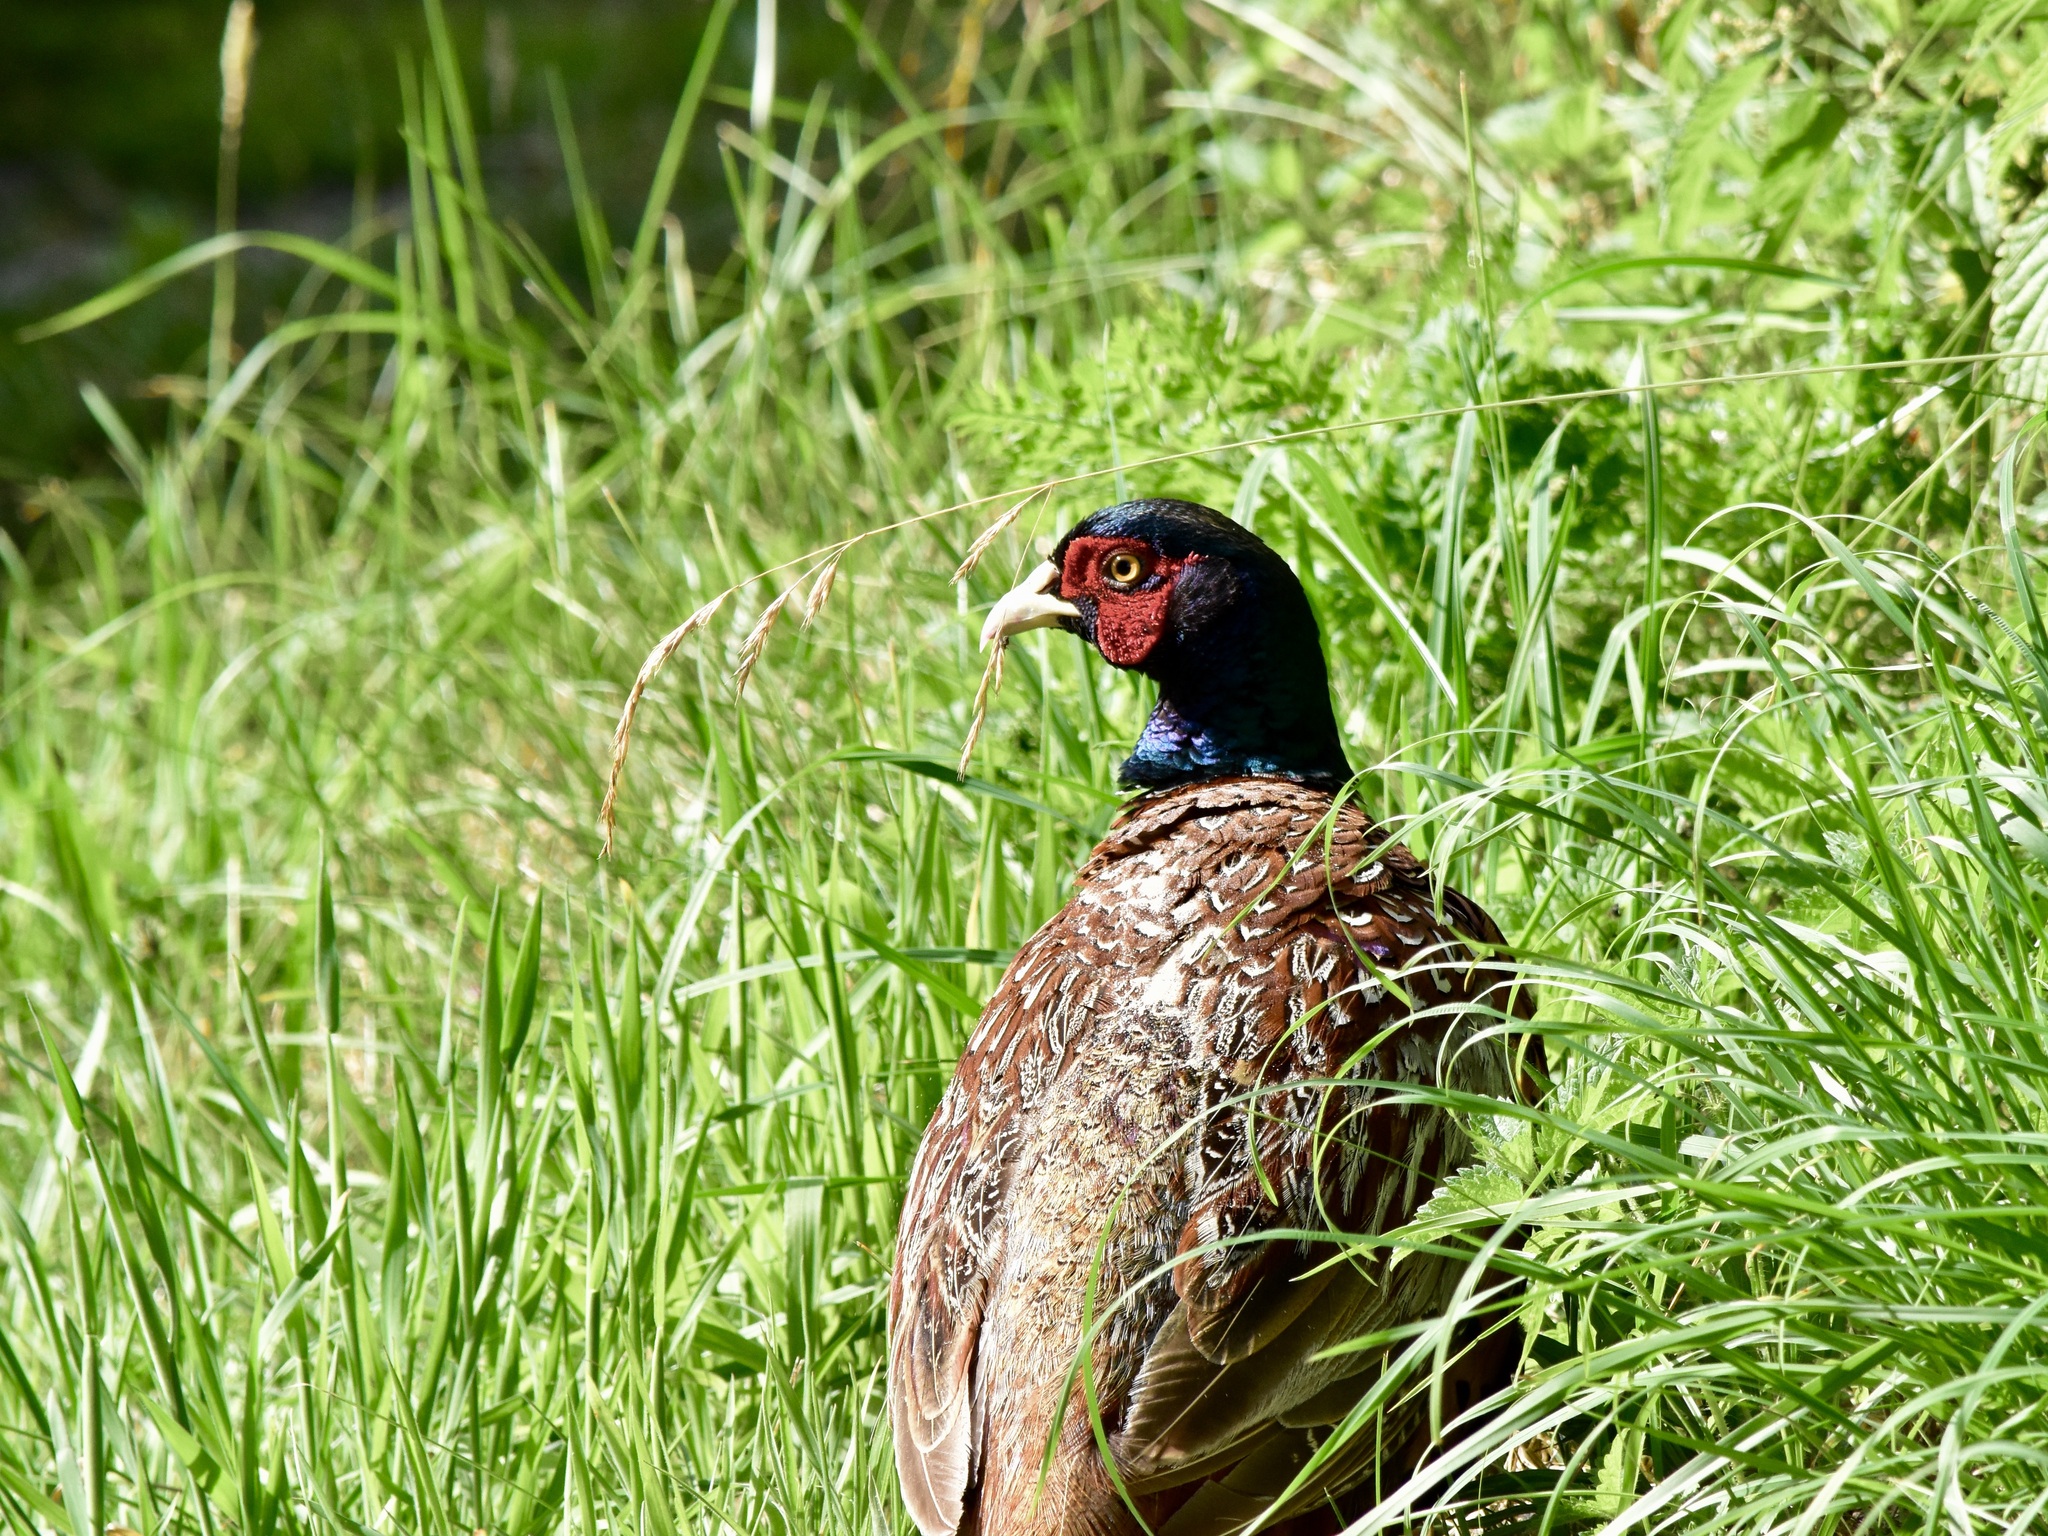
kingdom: Animalia
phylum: Chordata
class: Aves
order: Galliformes
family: Phasianidae
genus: Phasianus
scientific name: Phasianus colchicus
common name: Common pheasant
